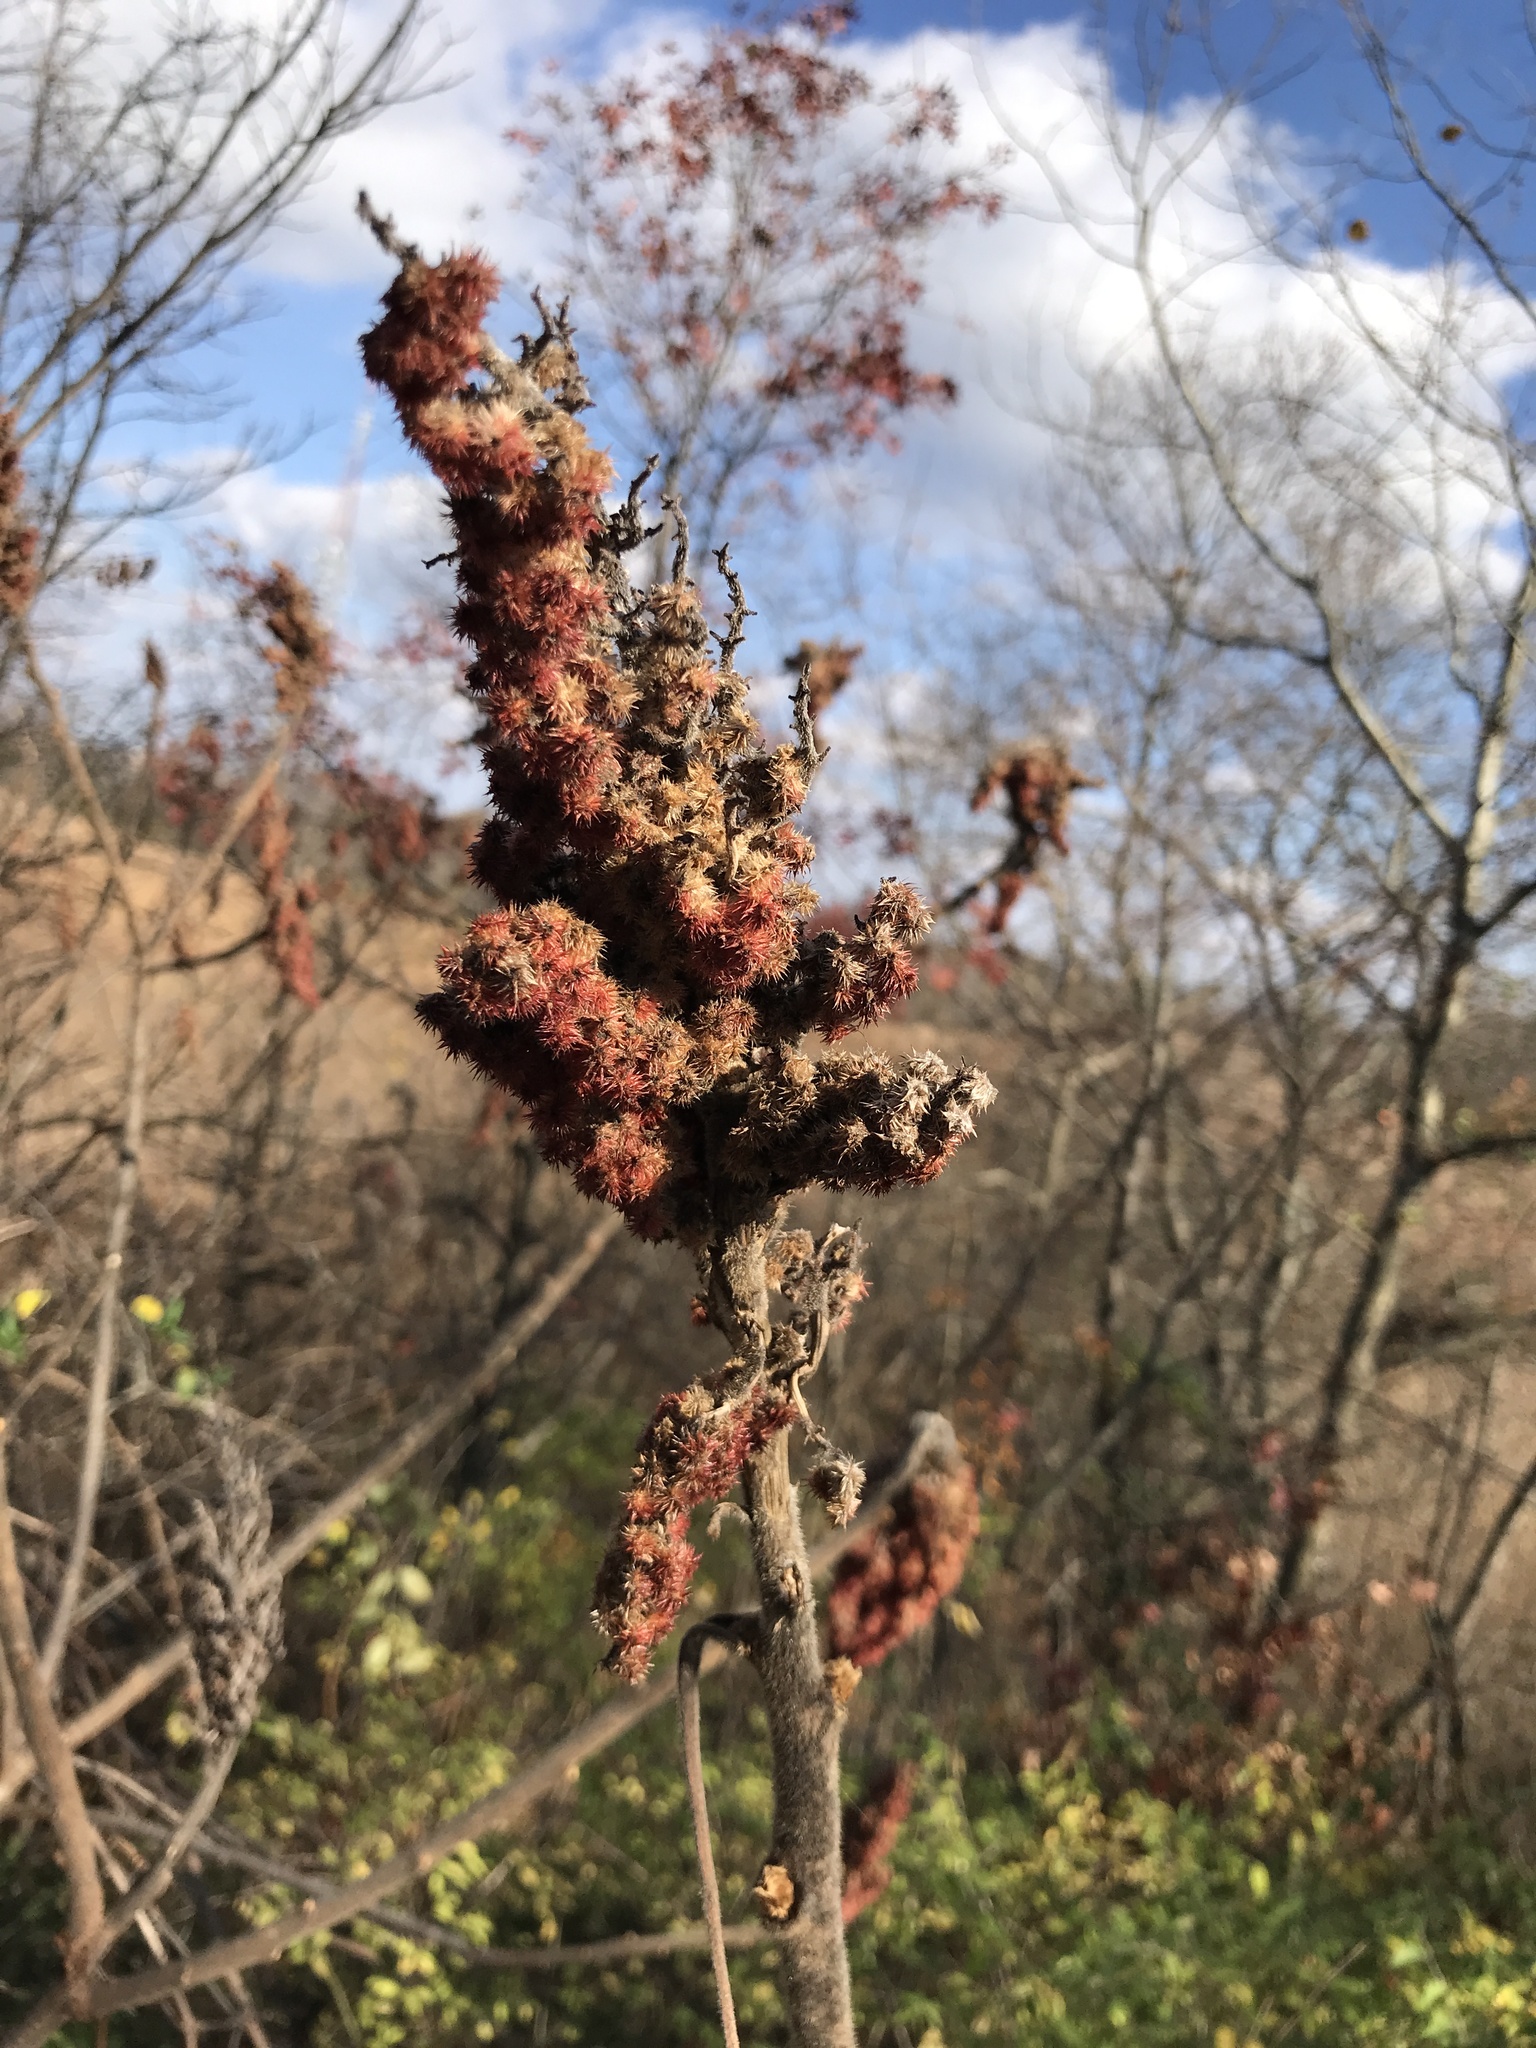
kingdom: Plantae
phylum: Tracheophyta
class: Magnoliopsida
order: Sapindales
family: Anacardiaceae
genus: Rhus
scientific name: Rhus typhina
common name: Staghorn sumac
